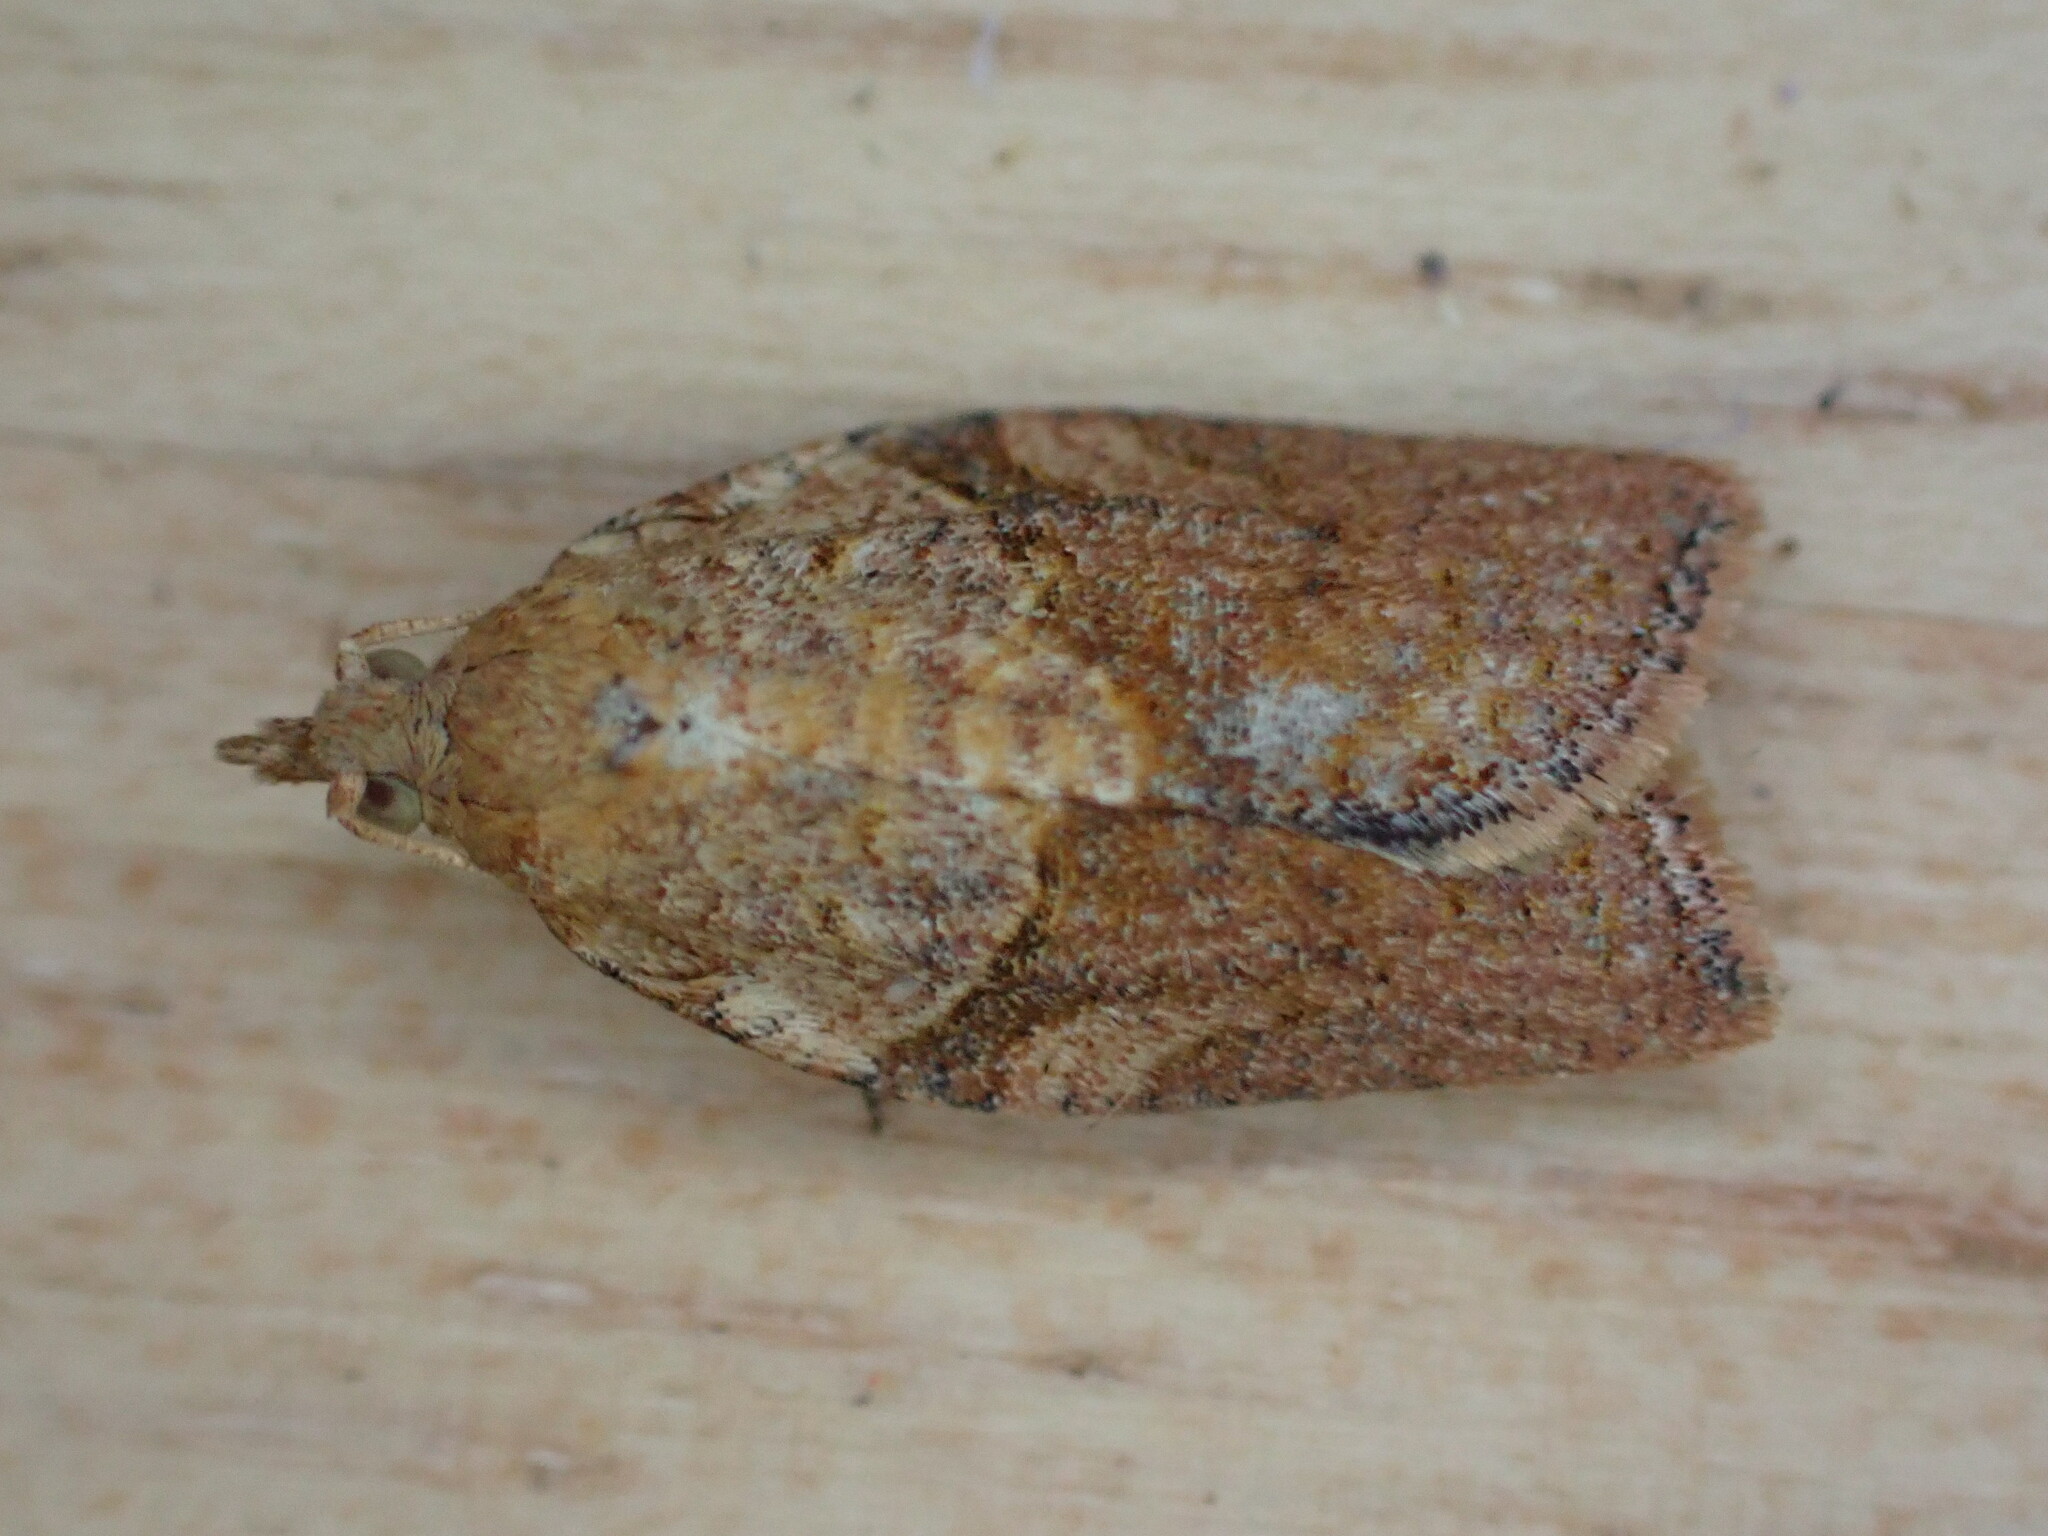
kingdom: Animalia
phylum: Arthropoda
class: Insecta
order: Lepidoptera
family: Tortricidae
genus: Epiphyas
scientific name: Epiphyas postvittana
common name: Light brown apple moth
